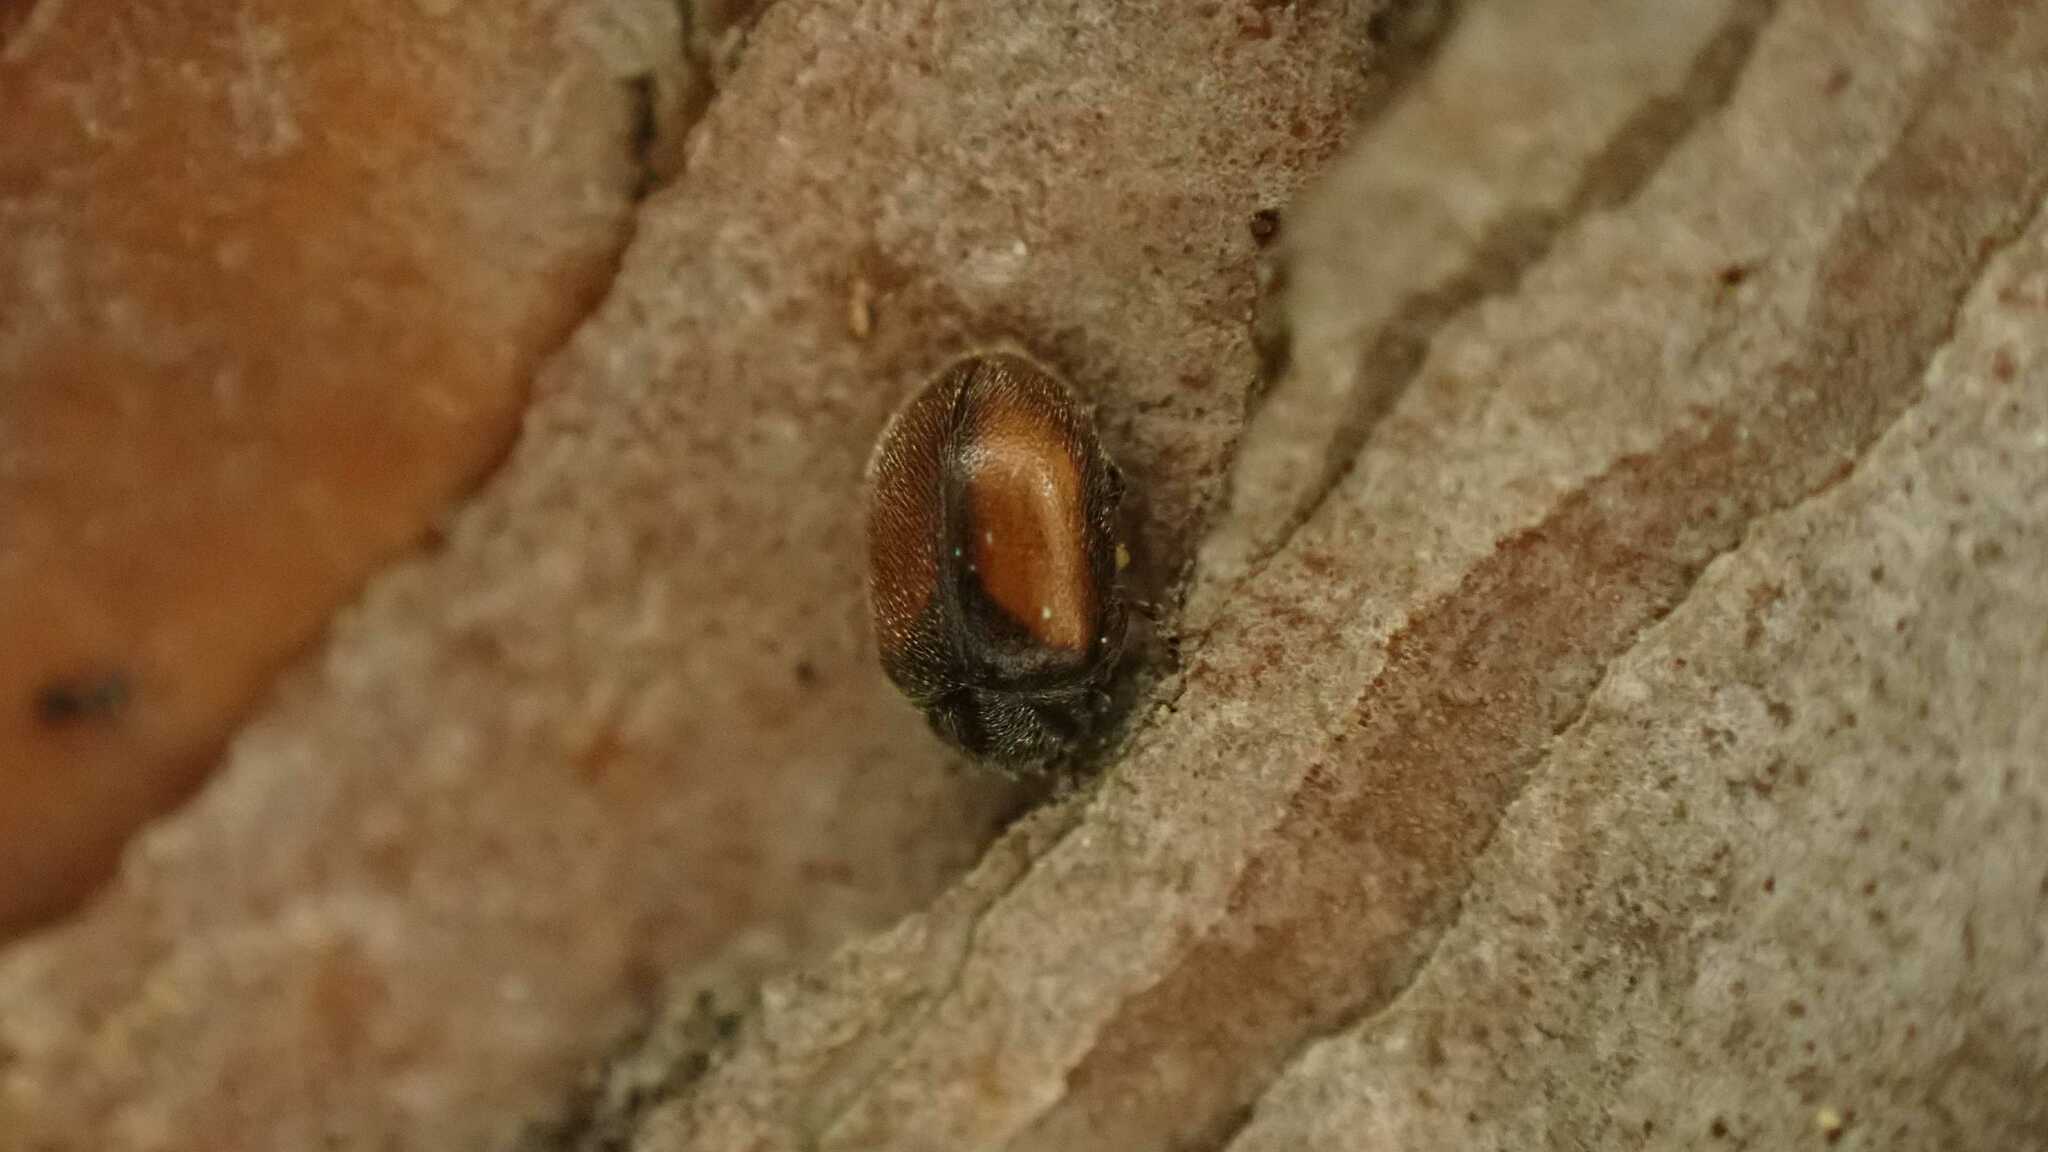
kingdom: Animalia
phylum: Arthropoda
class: Insecta
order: Coleoptera
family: Coccinellidae
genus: Scymnus
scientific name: Scymnus suturalis
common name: Ladybird beetle
